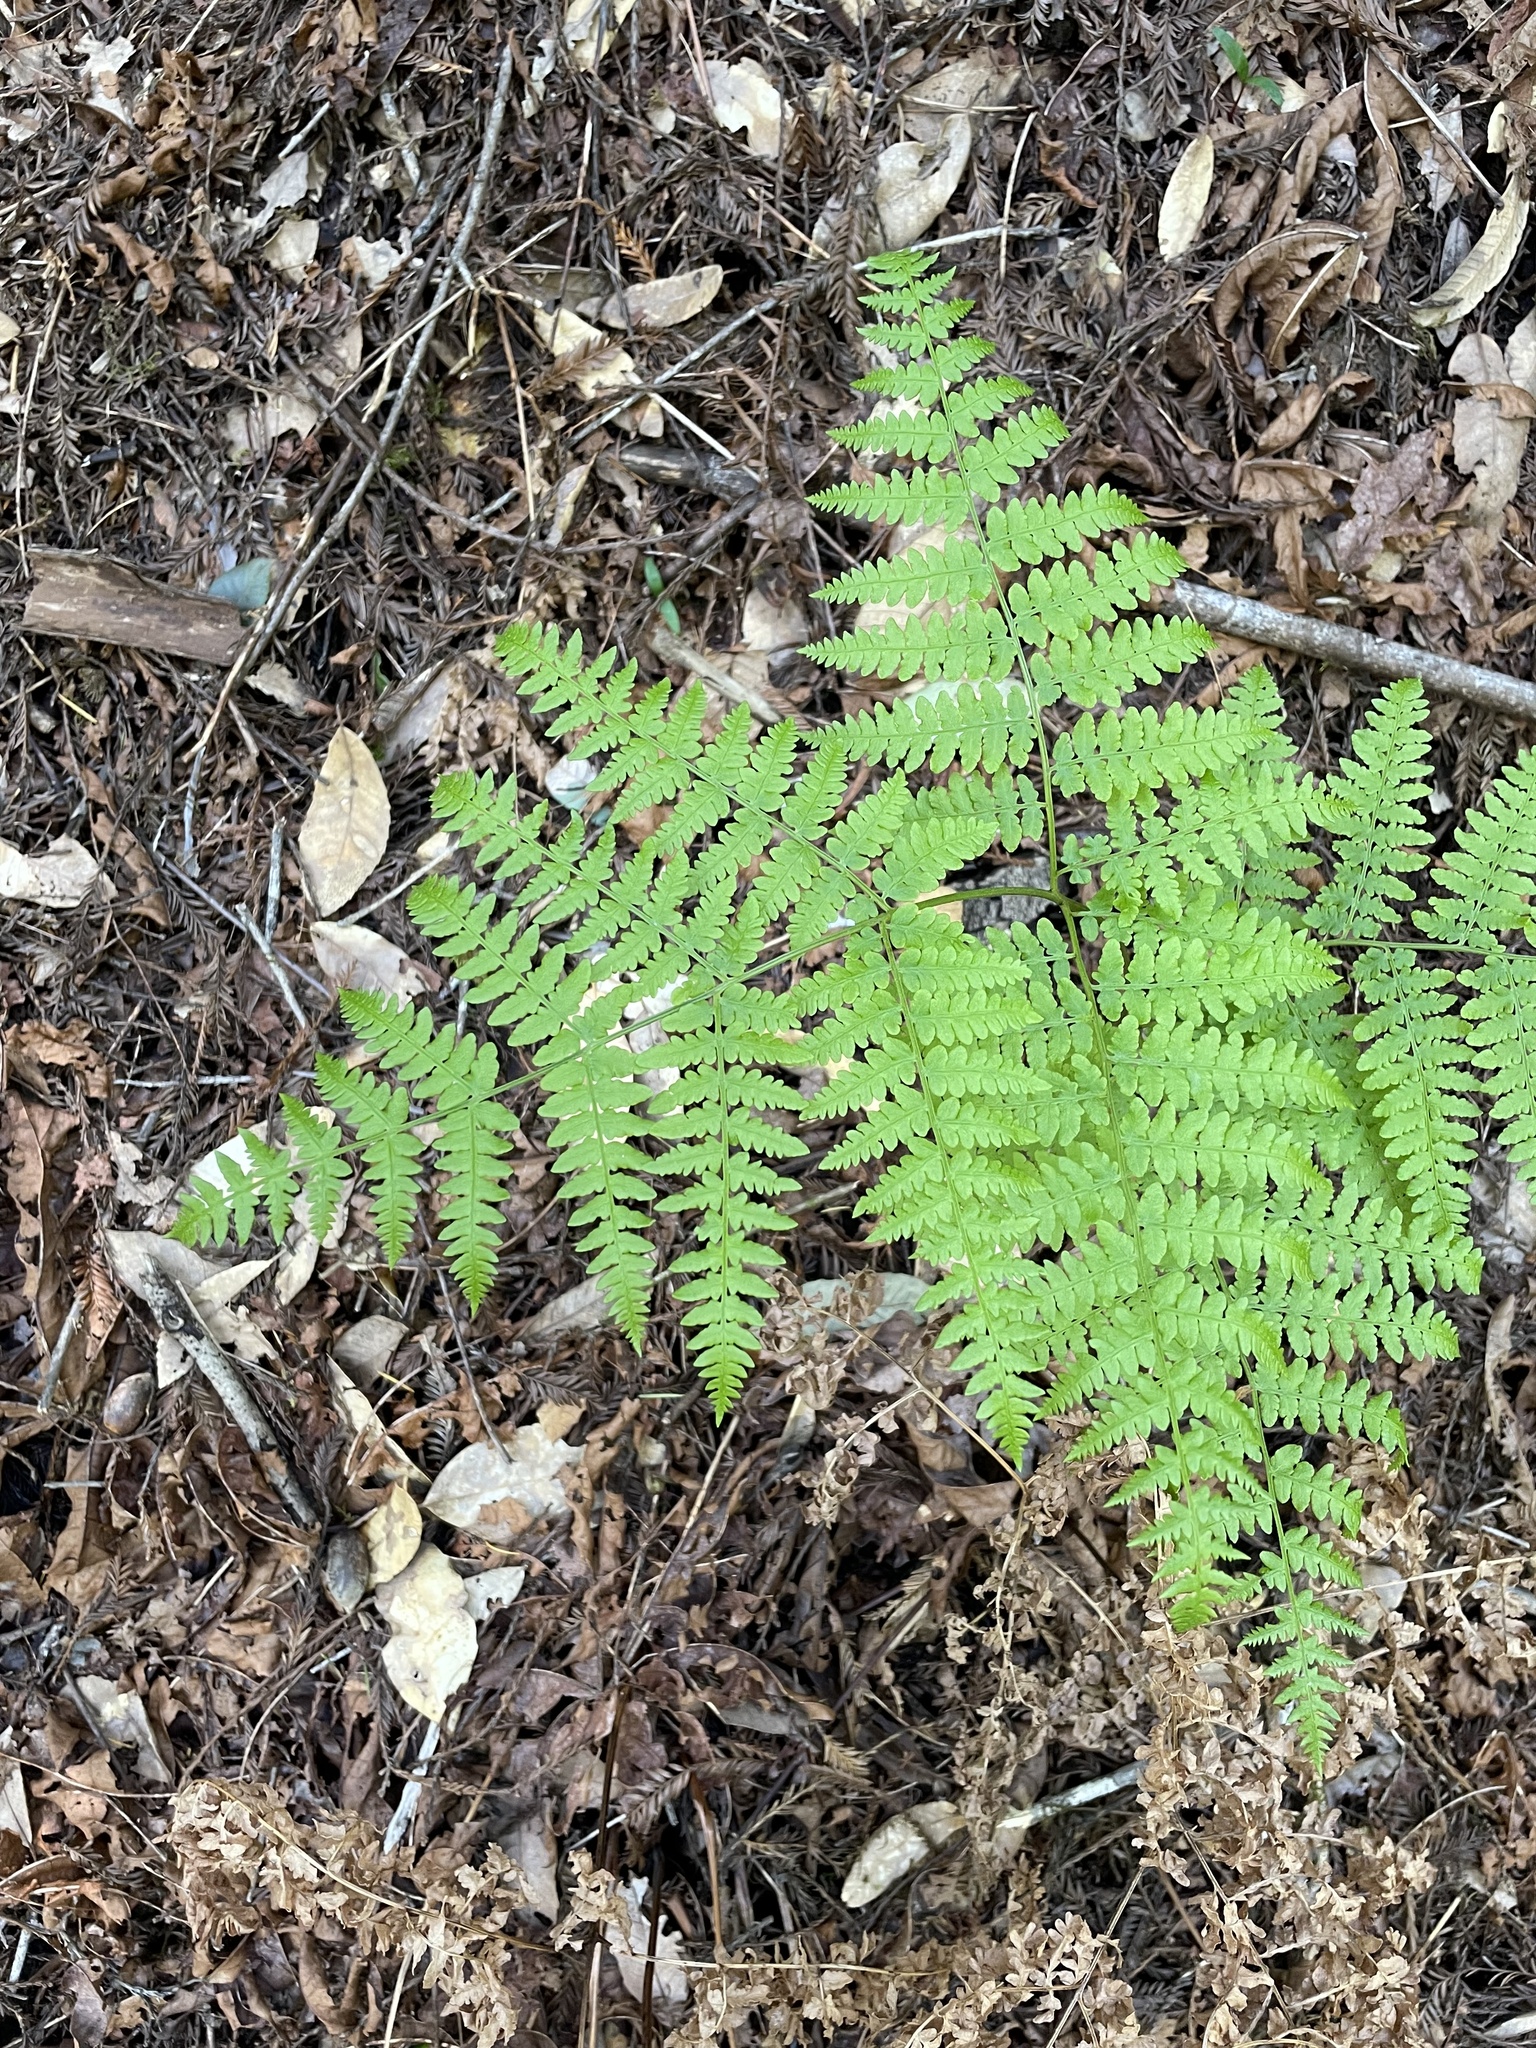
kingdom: Plantae
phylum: Tracheophyta
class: Polypodiopsida
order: Polypodiales
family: Dennstaedtiaceae
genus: Pteridium
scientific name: Pteridium aquilinum
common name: Bracken
